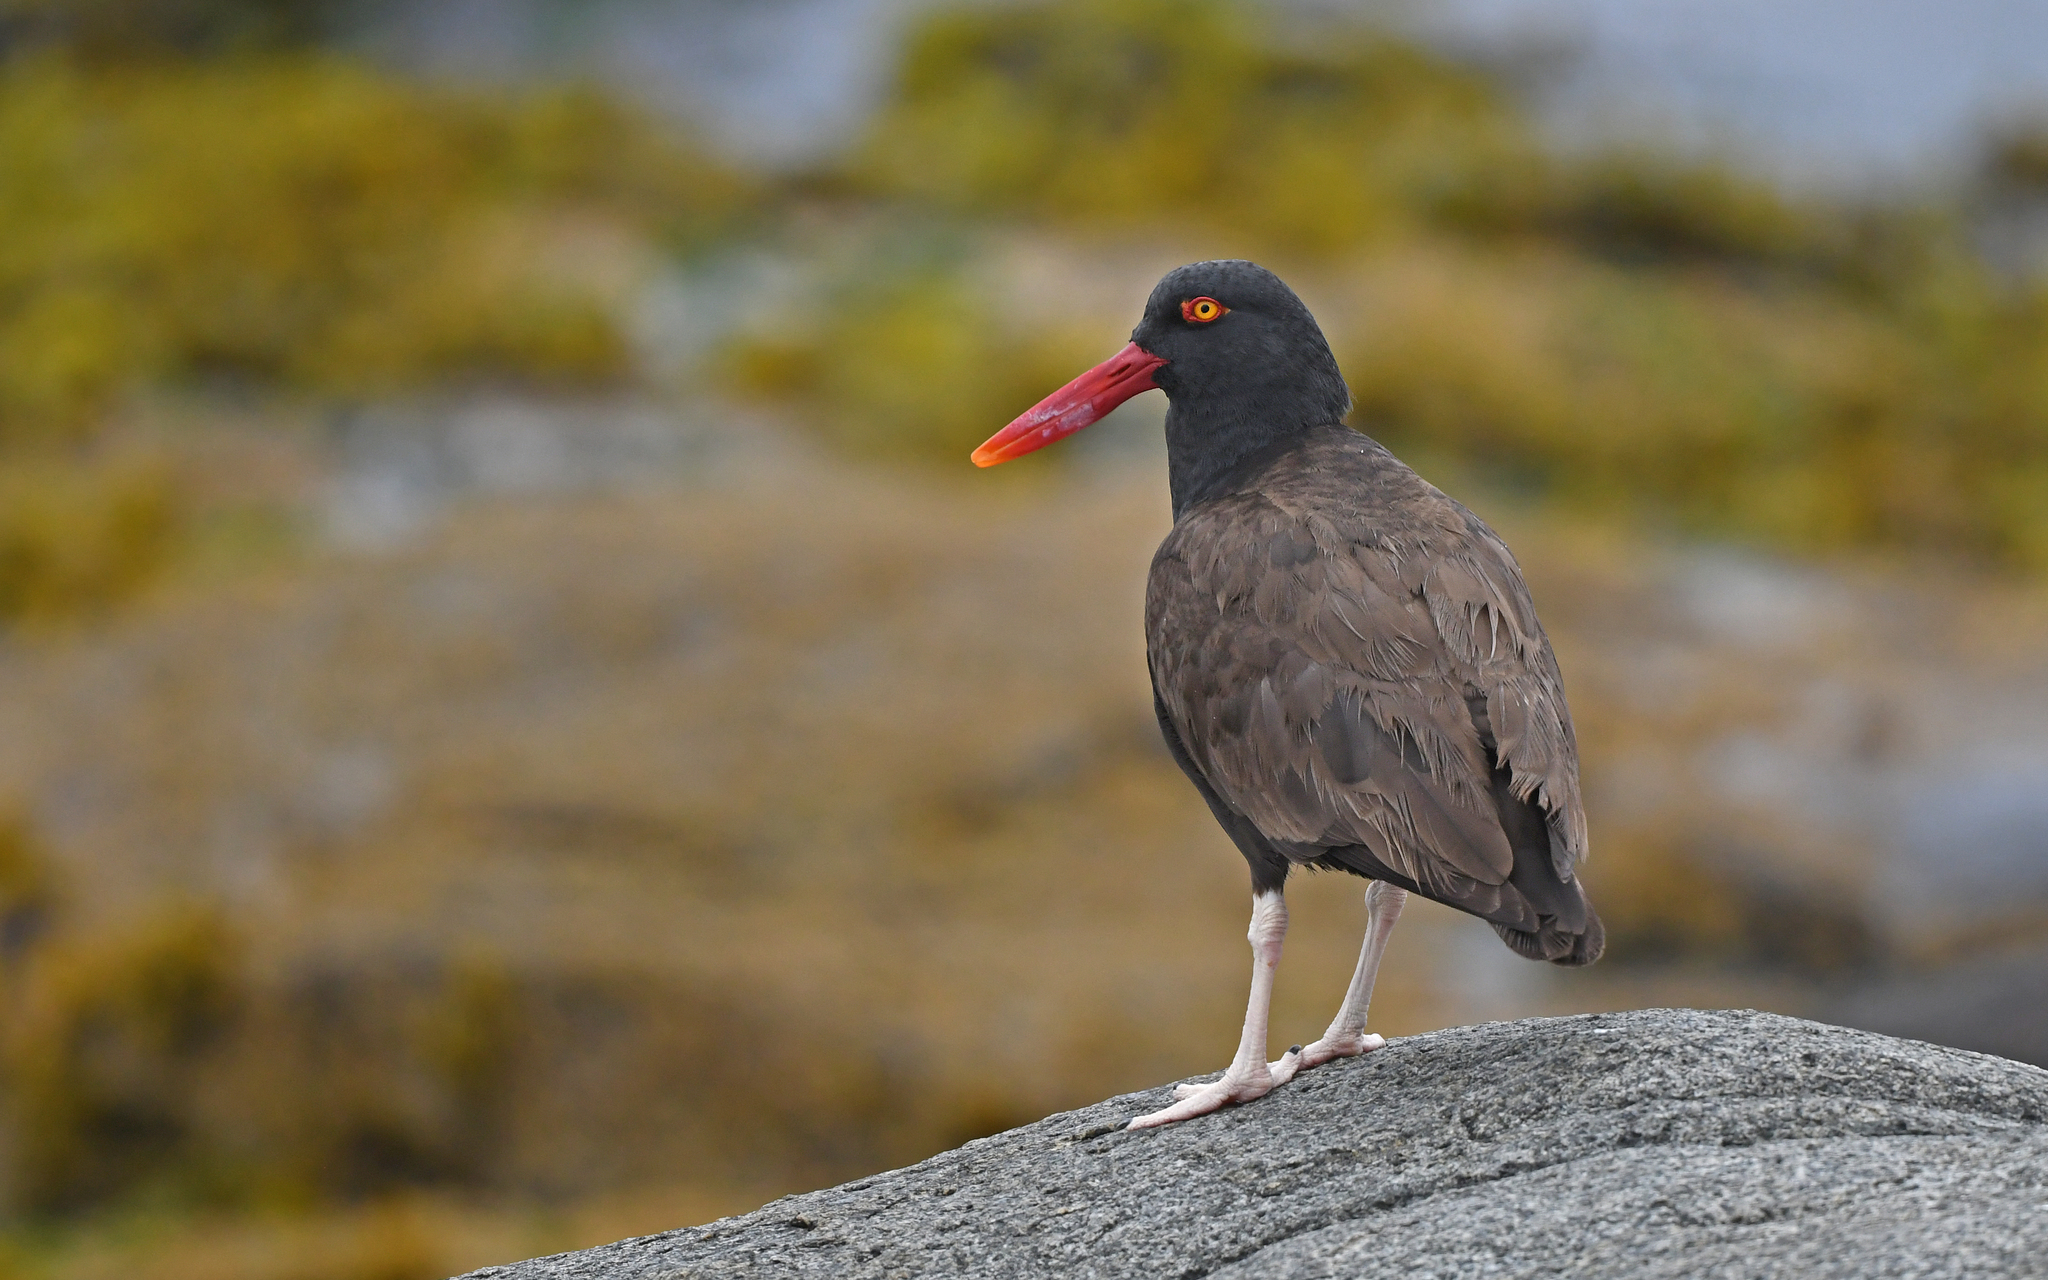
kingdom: Animalia
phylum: Chordata
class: Aves
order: Charadriiformes
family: Haematopodidae
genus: Haematopus
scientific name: Haematopus ater
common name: Blackish oystercatcher
